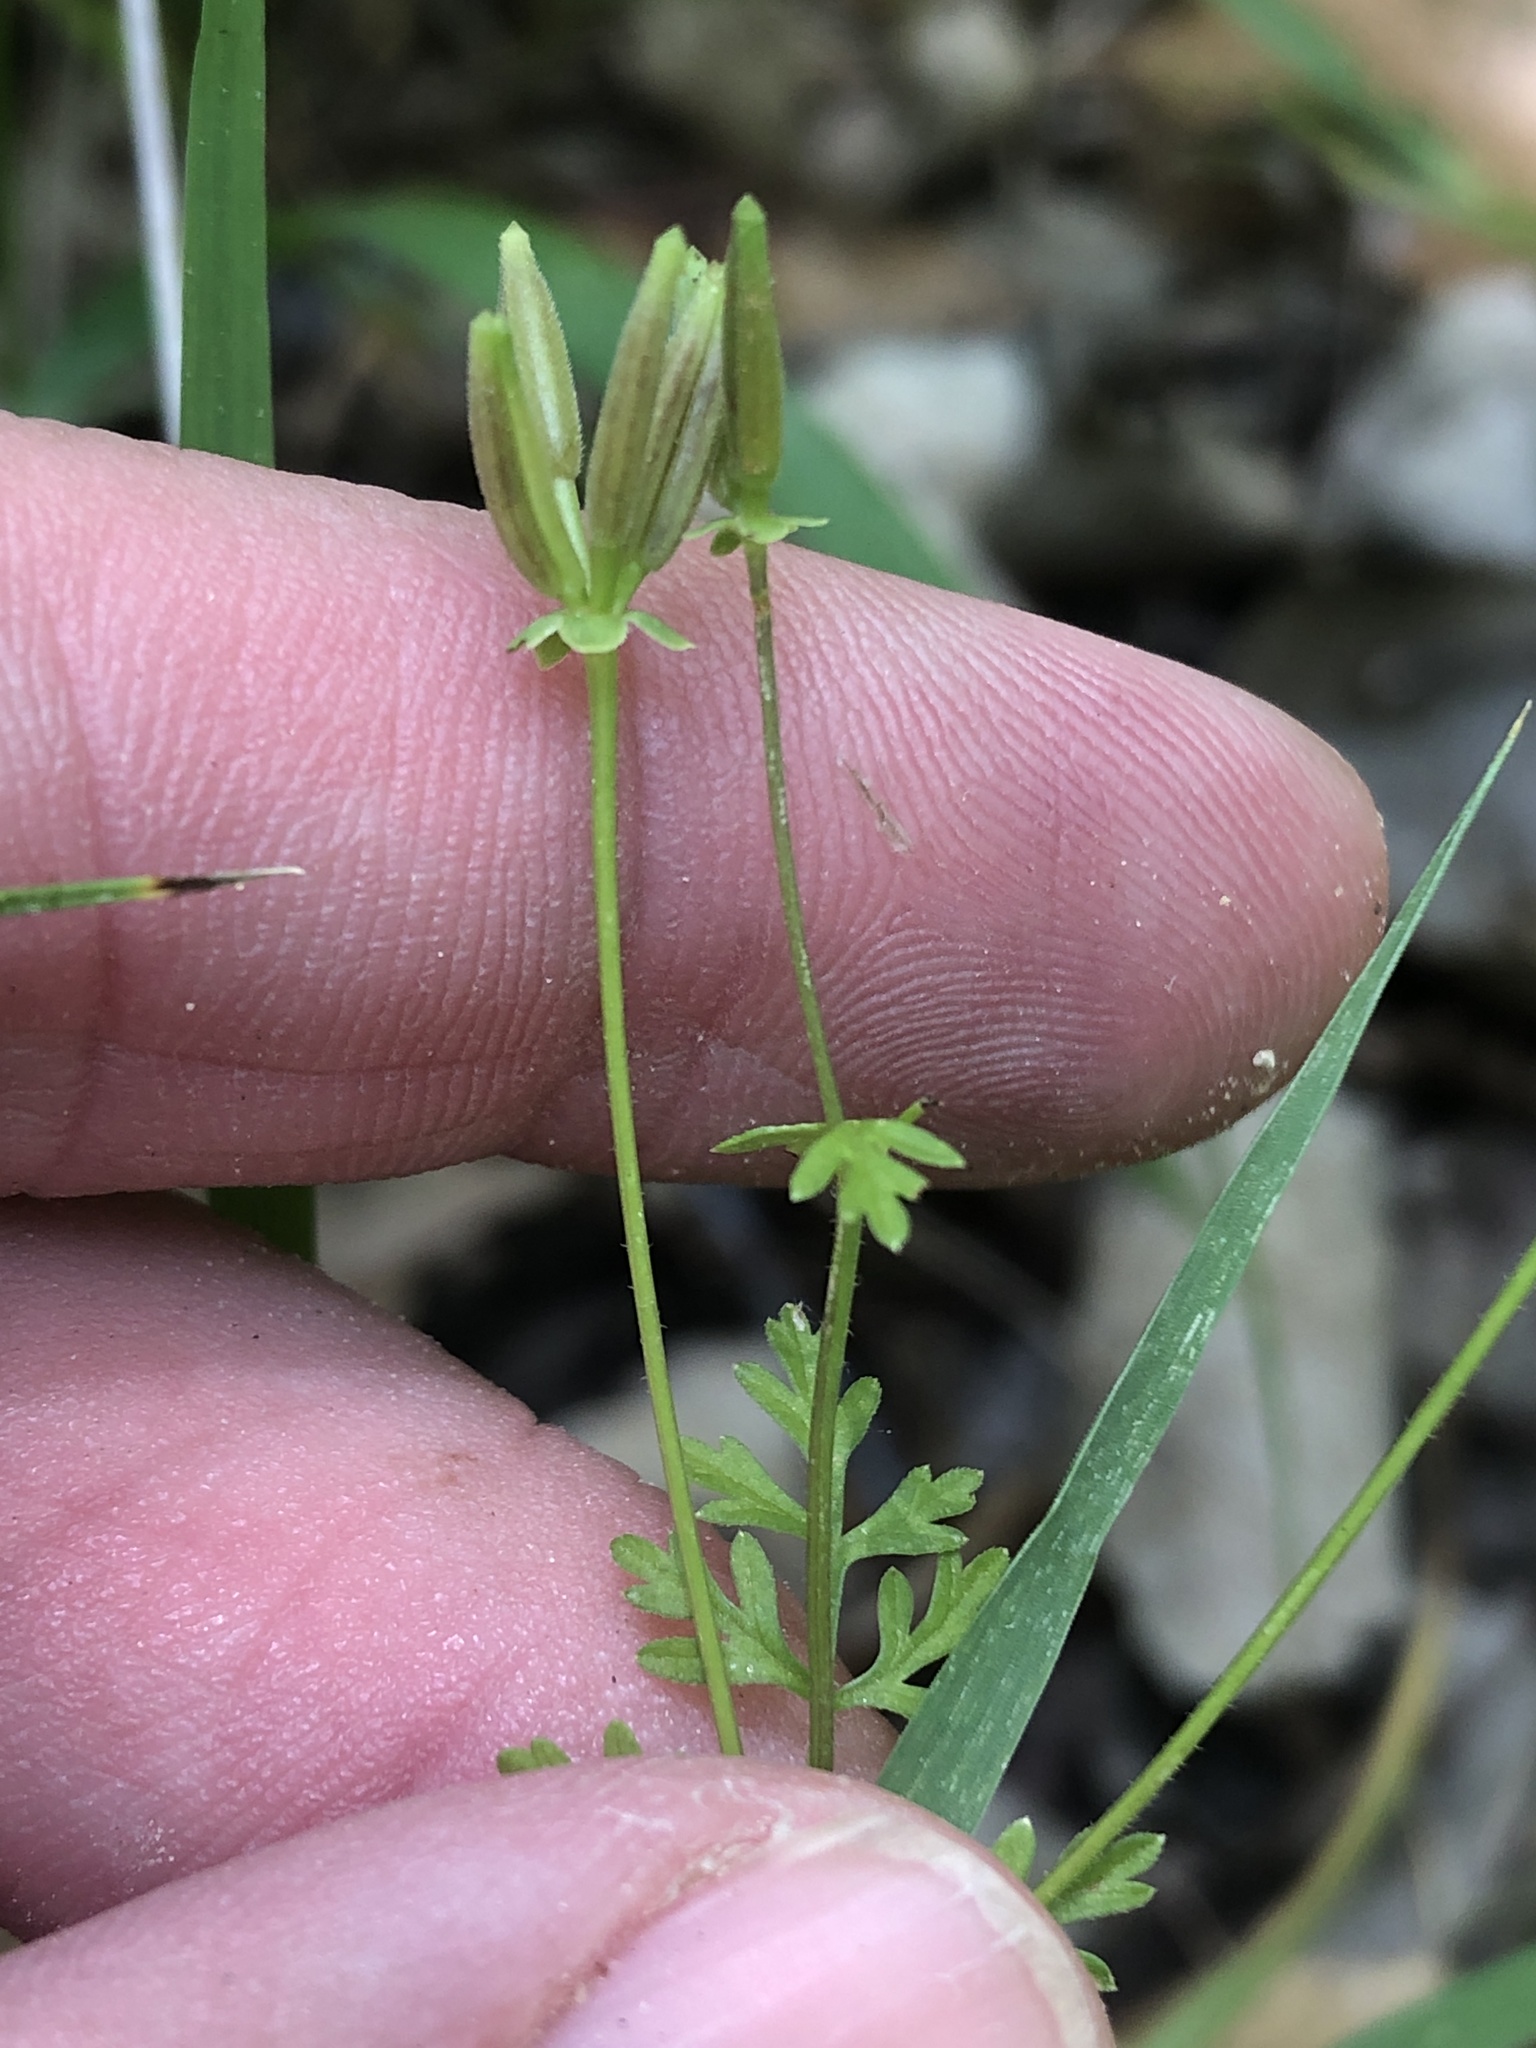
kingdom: Plantae
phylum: Tracheophyta
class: Magnoliopsida
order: Apiales
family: Apiaceae
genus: Chaerophyllum
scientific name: Chaerophyllum tainturieri
